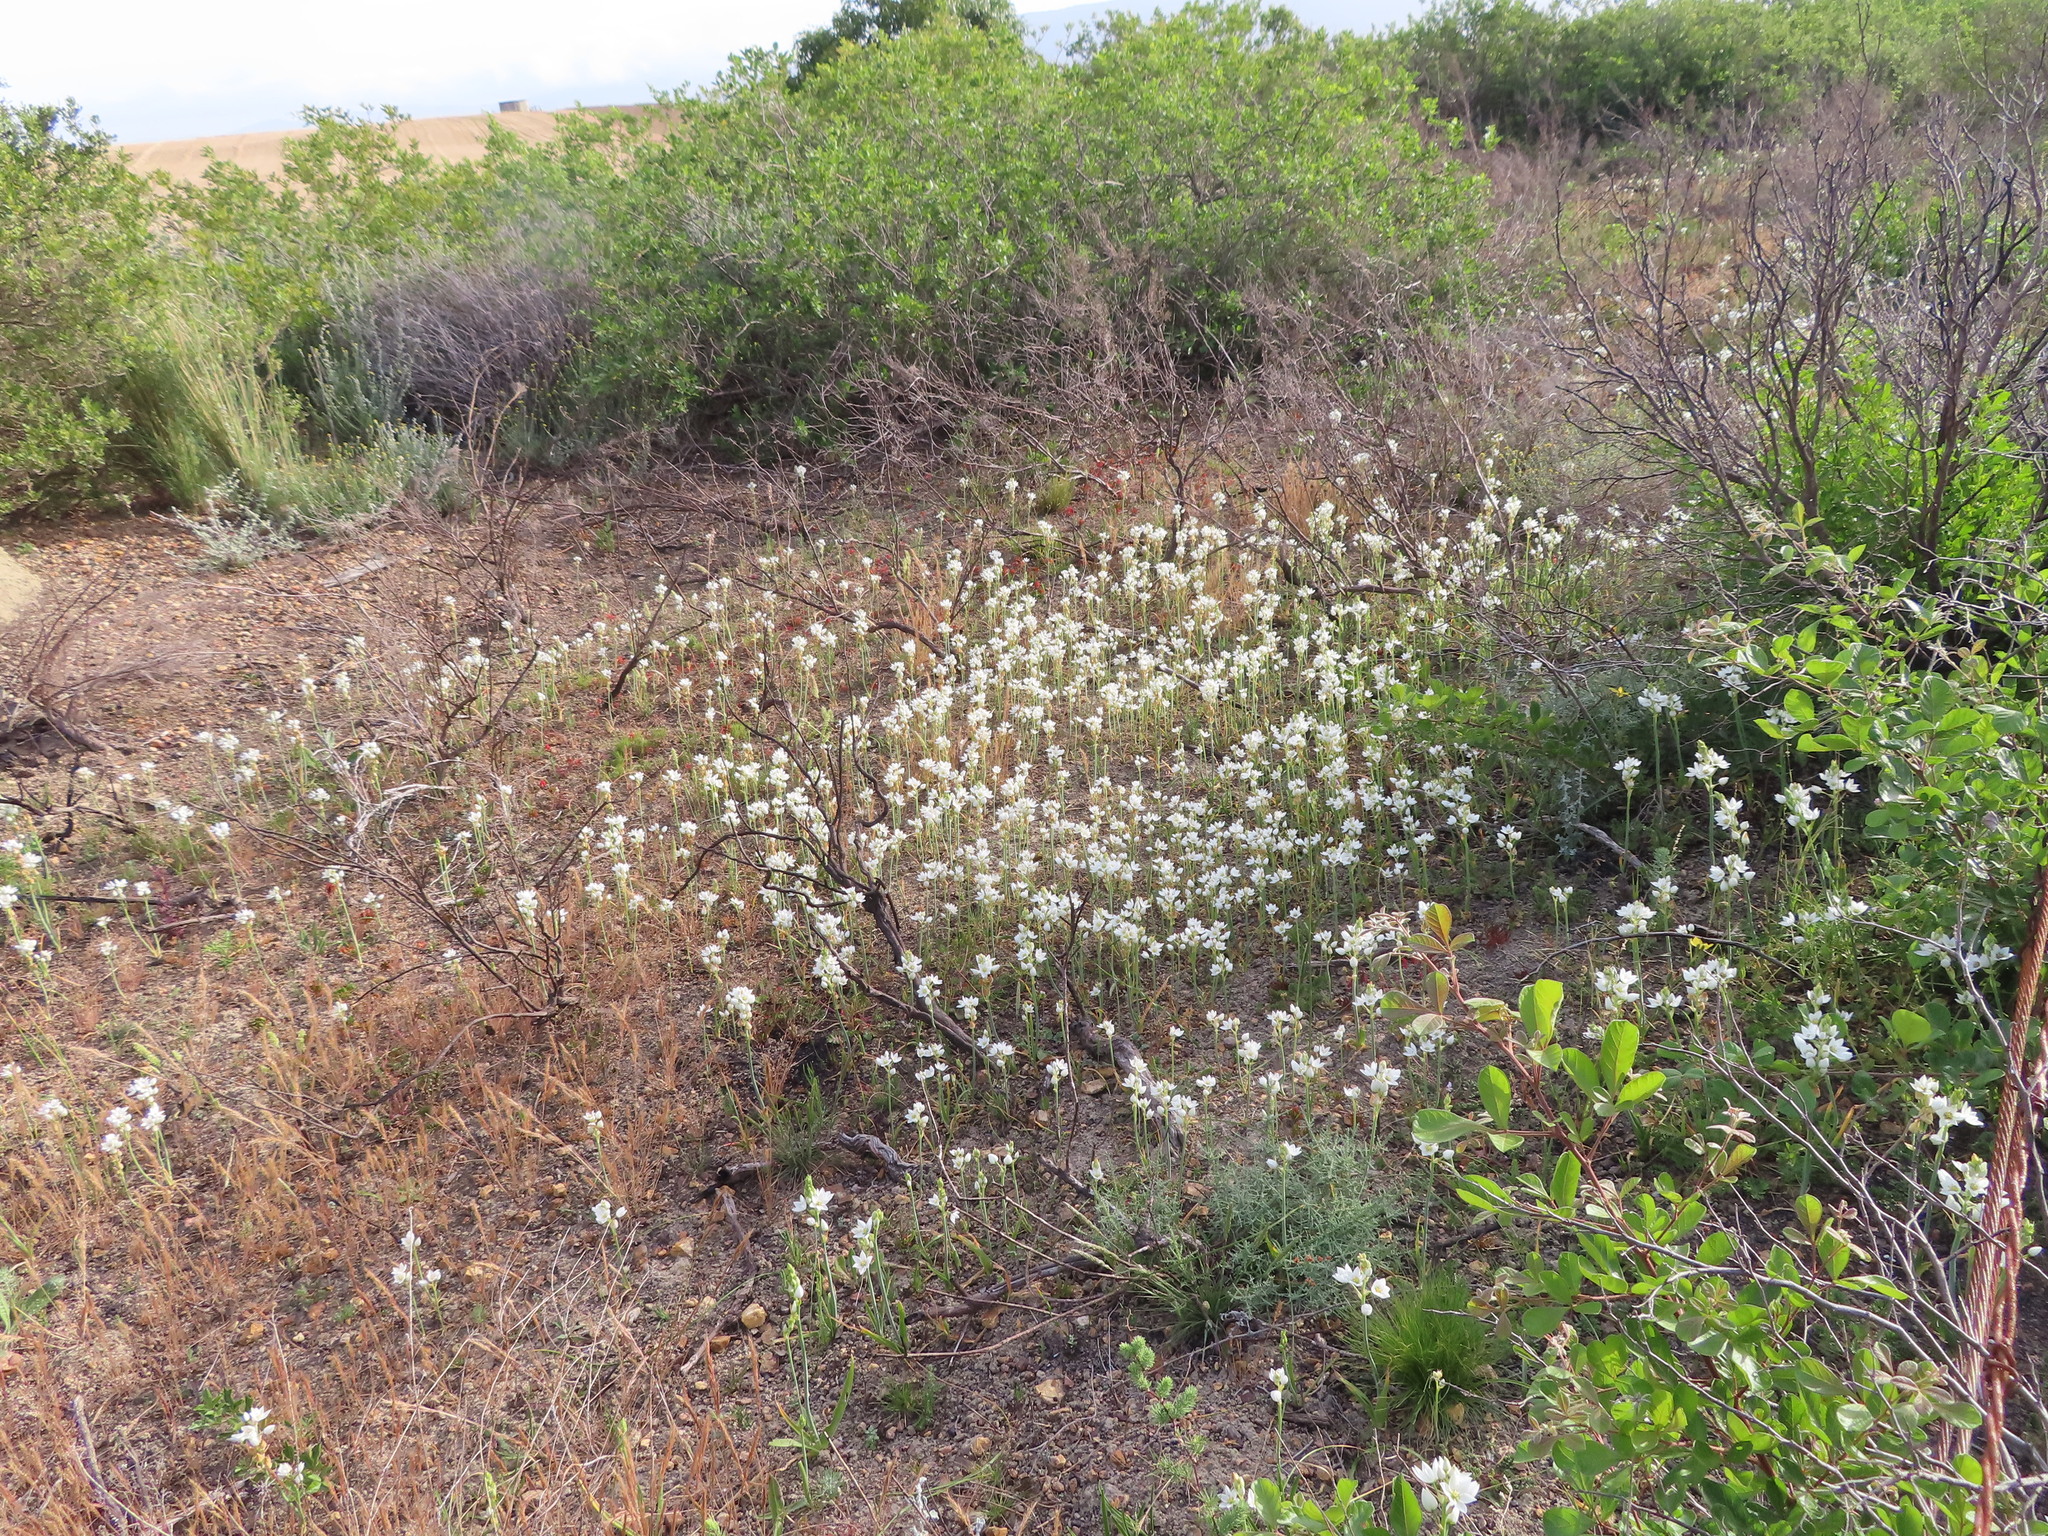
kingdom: Plantae
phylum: Tracheophyta
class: Liliopsida
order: Asparagales
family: Asparagaceae
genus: Ornithogalum
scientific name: Ornithogalum thyrsoides
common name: Chincherinchee
